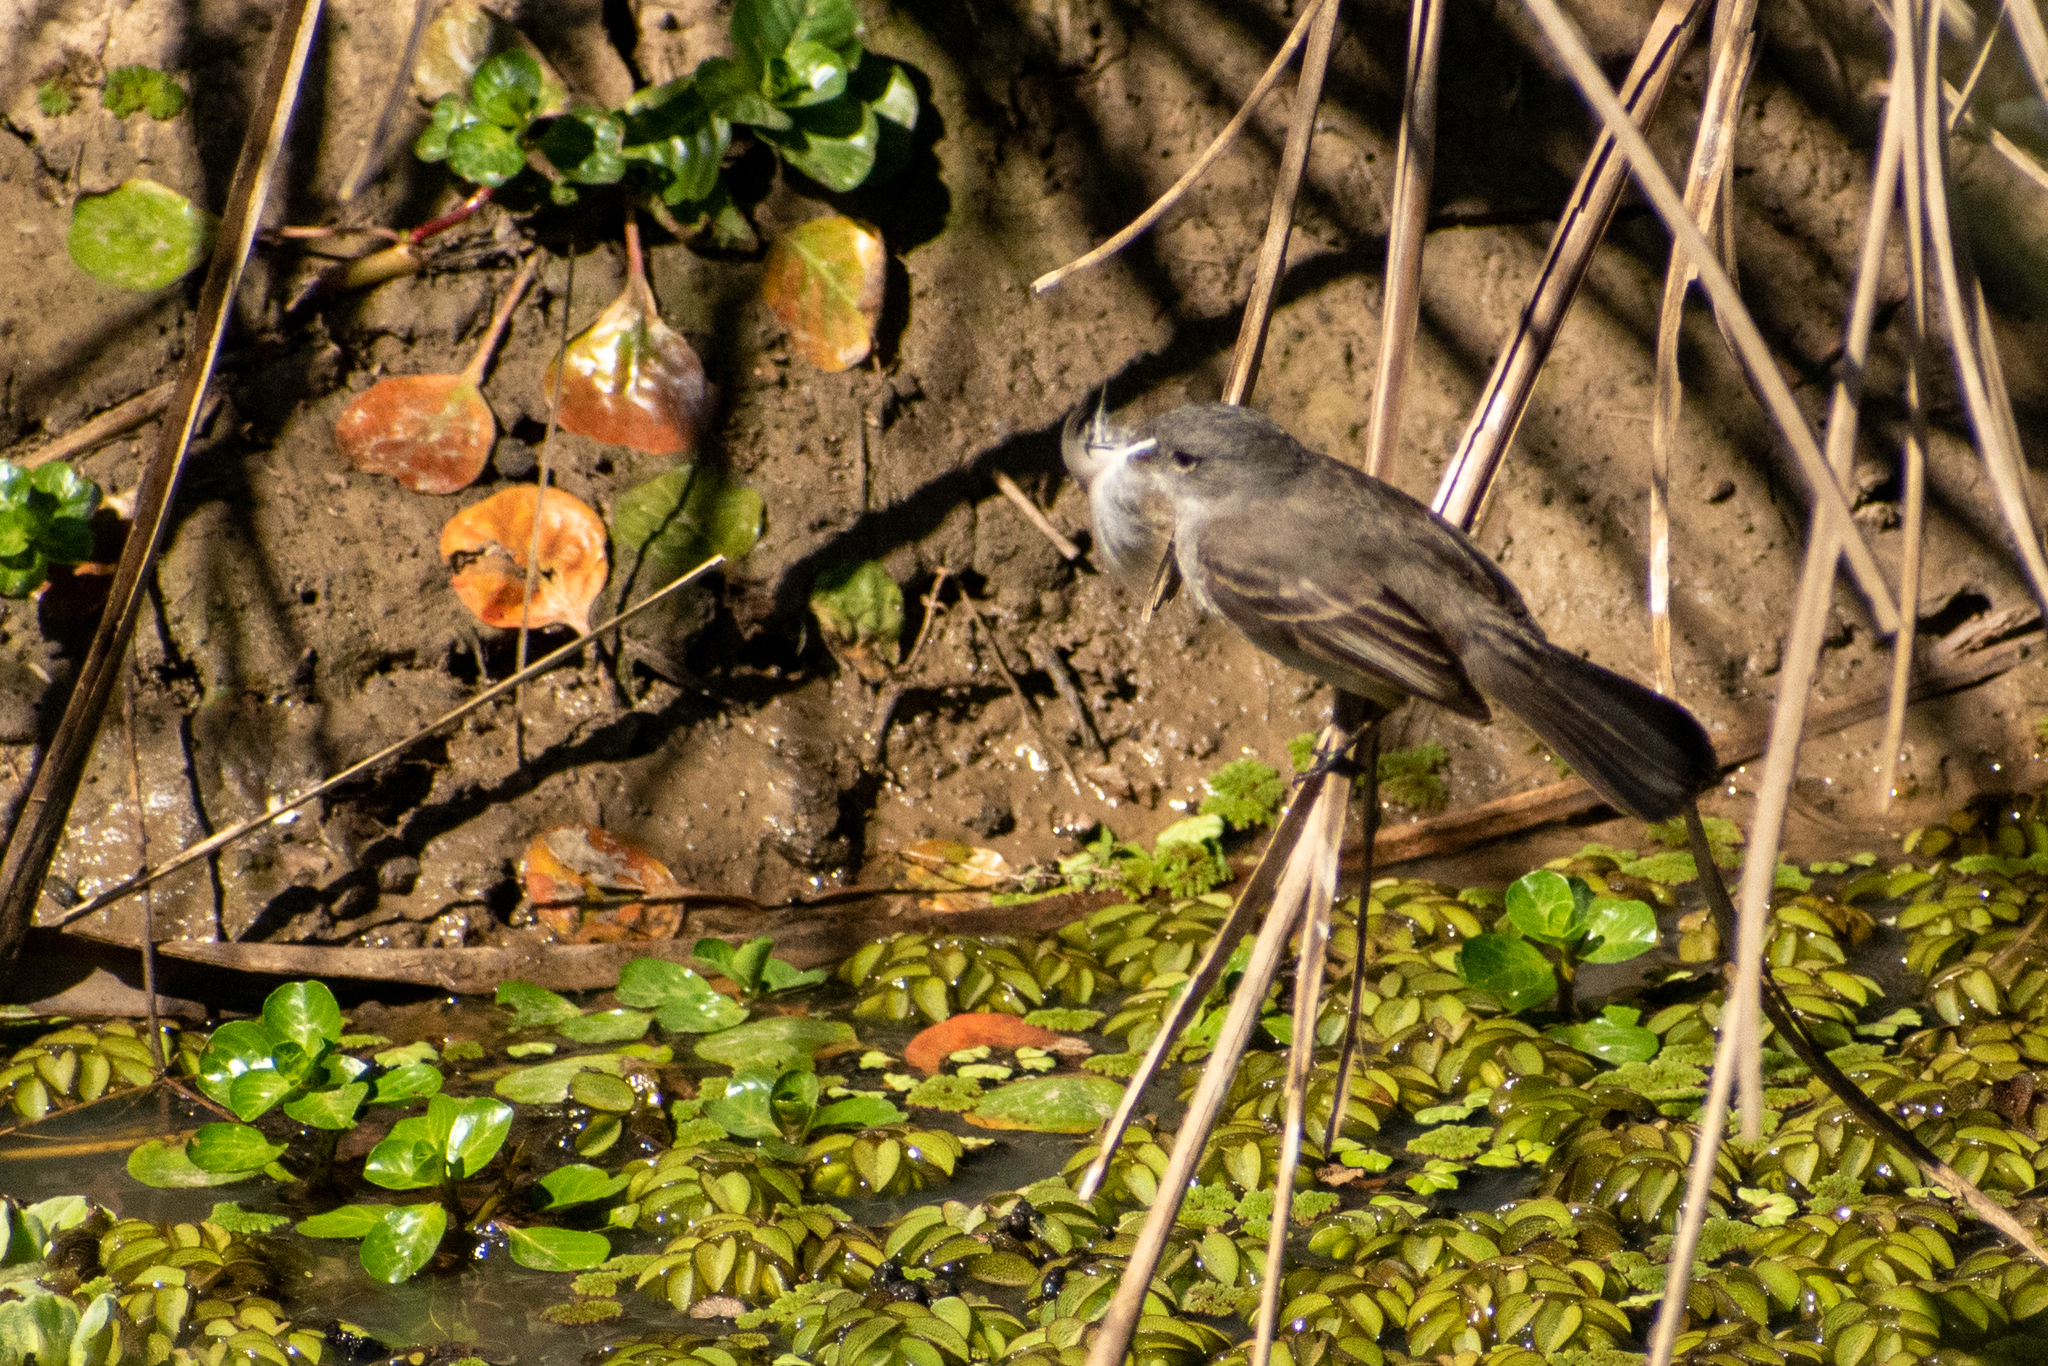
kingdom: Animalia
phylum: Chordata
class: Aves
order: Passeriformes
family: Tyrannidae
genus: Serpophaga
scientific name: Serpophaga nigricans
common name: Sooty tyrannulet
